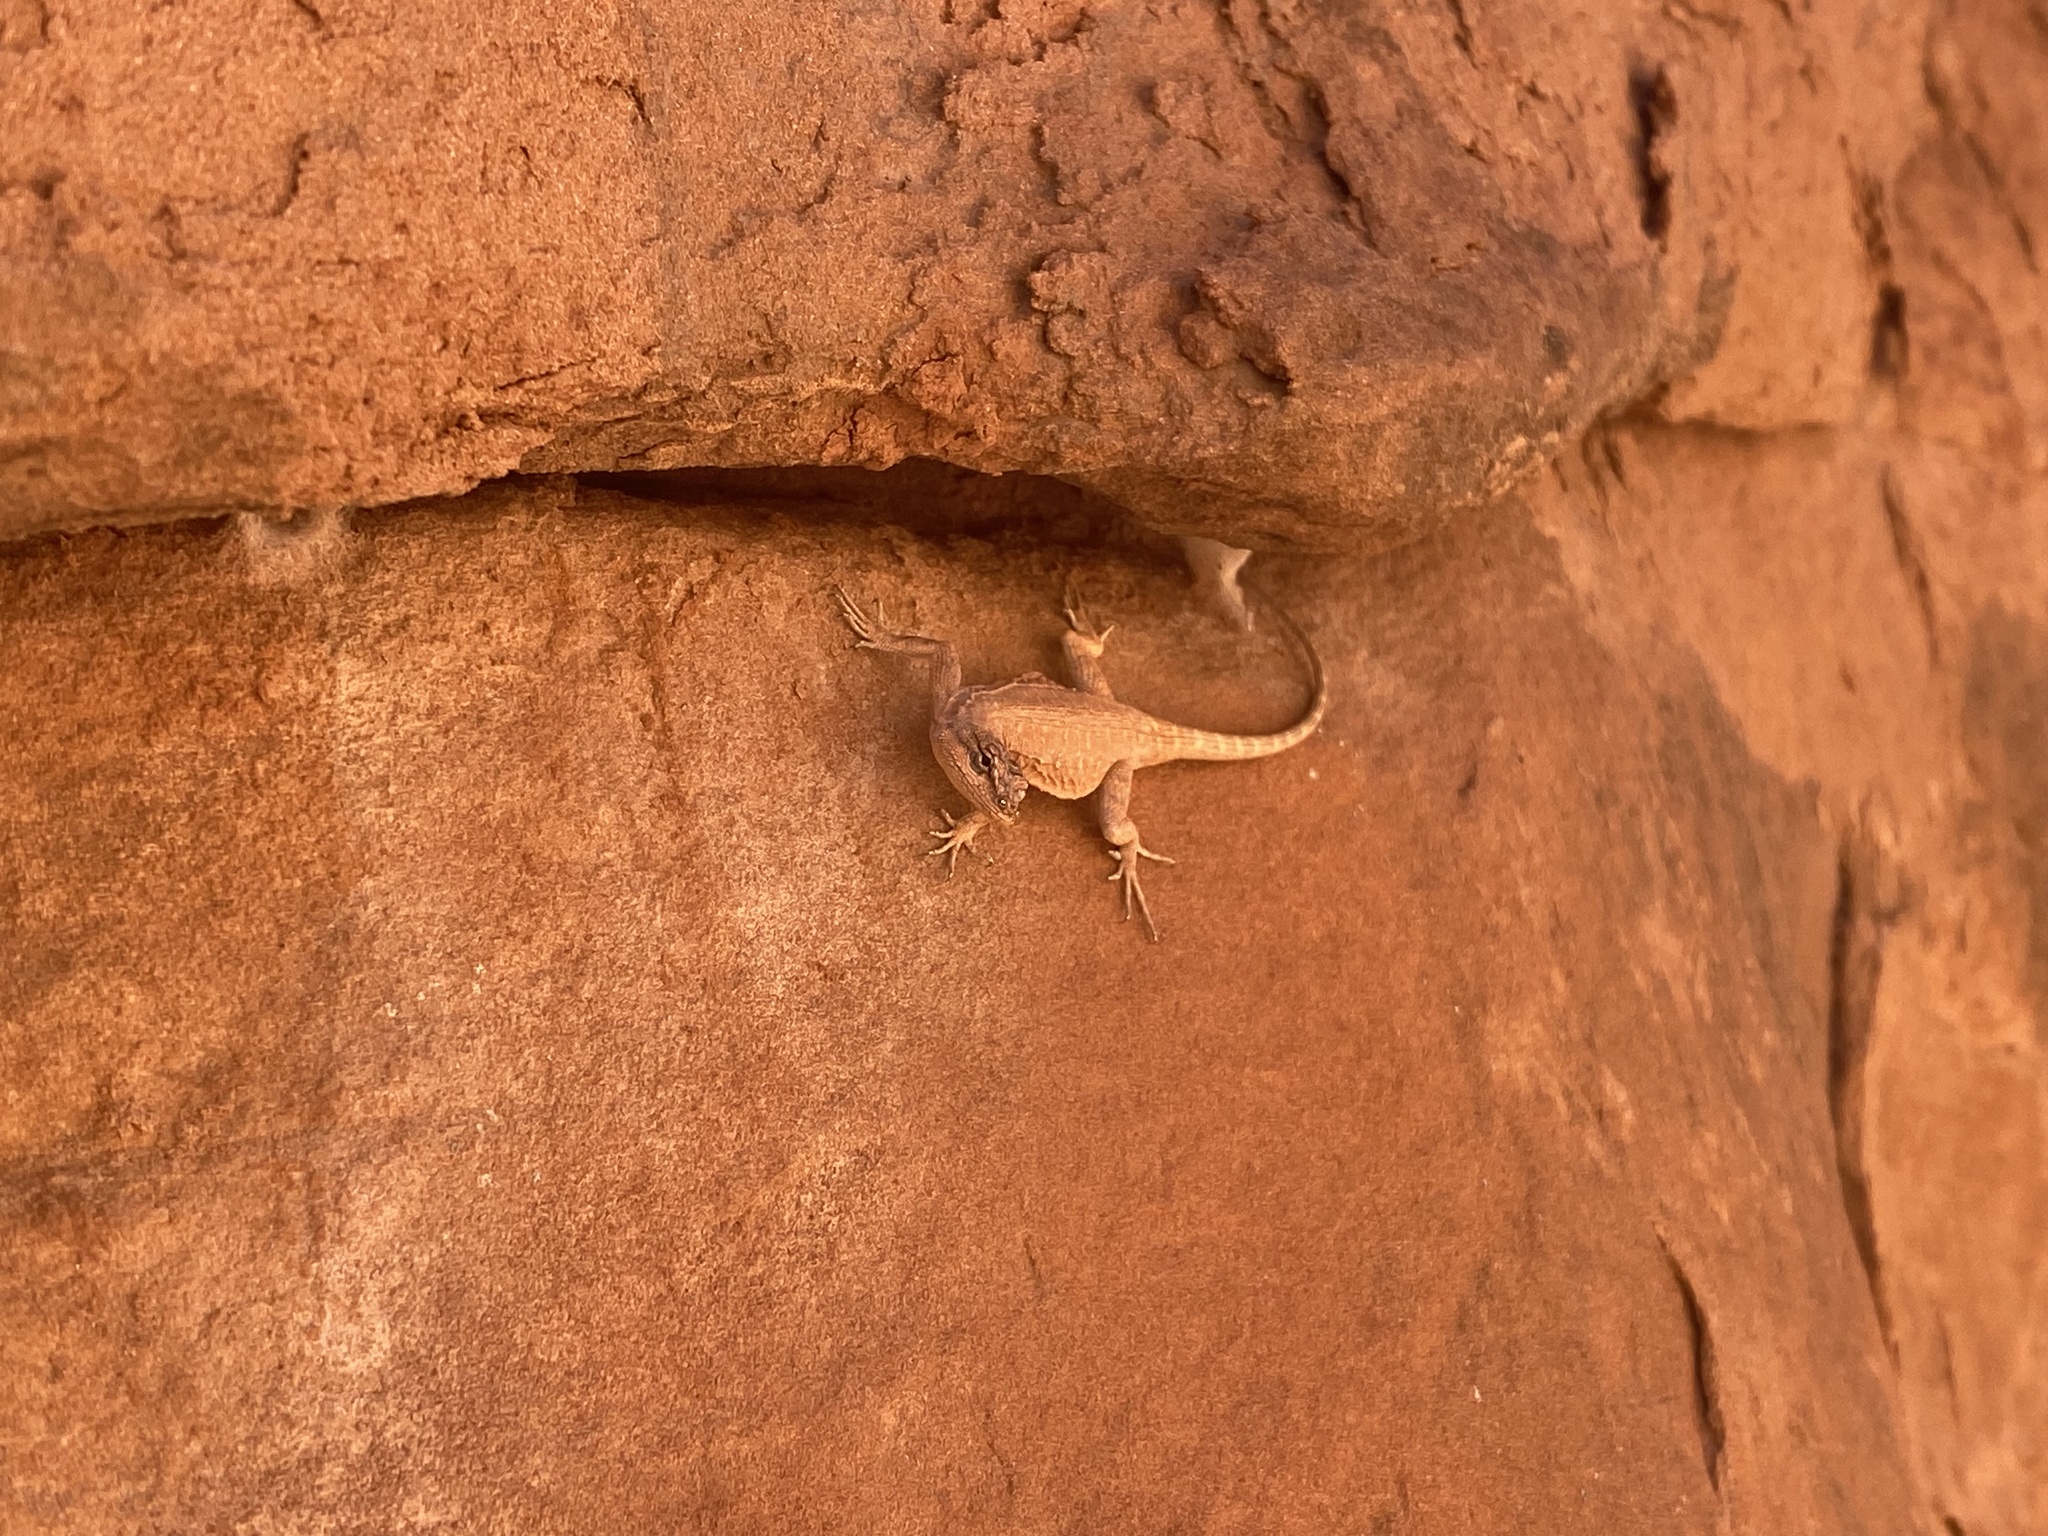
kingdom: Animalia
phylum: Chordata
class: Squamata
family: Phrynosomatidae
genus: Urosaurus
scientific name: Urosaurus ornatus
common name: Ornate tree lizard
